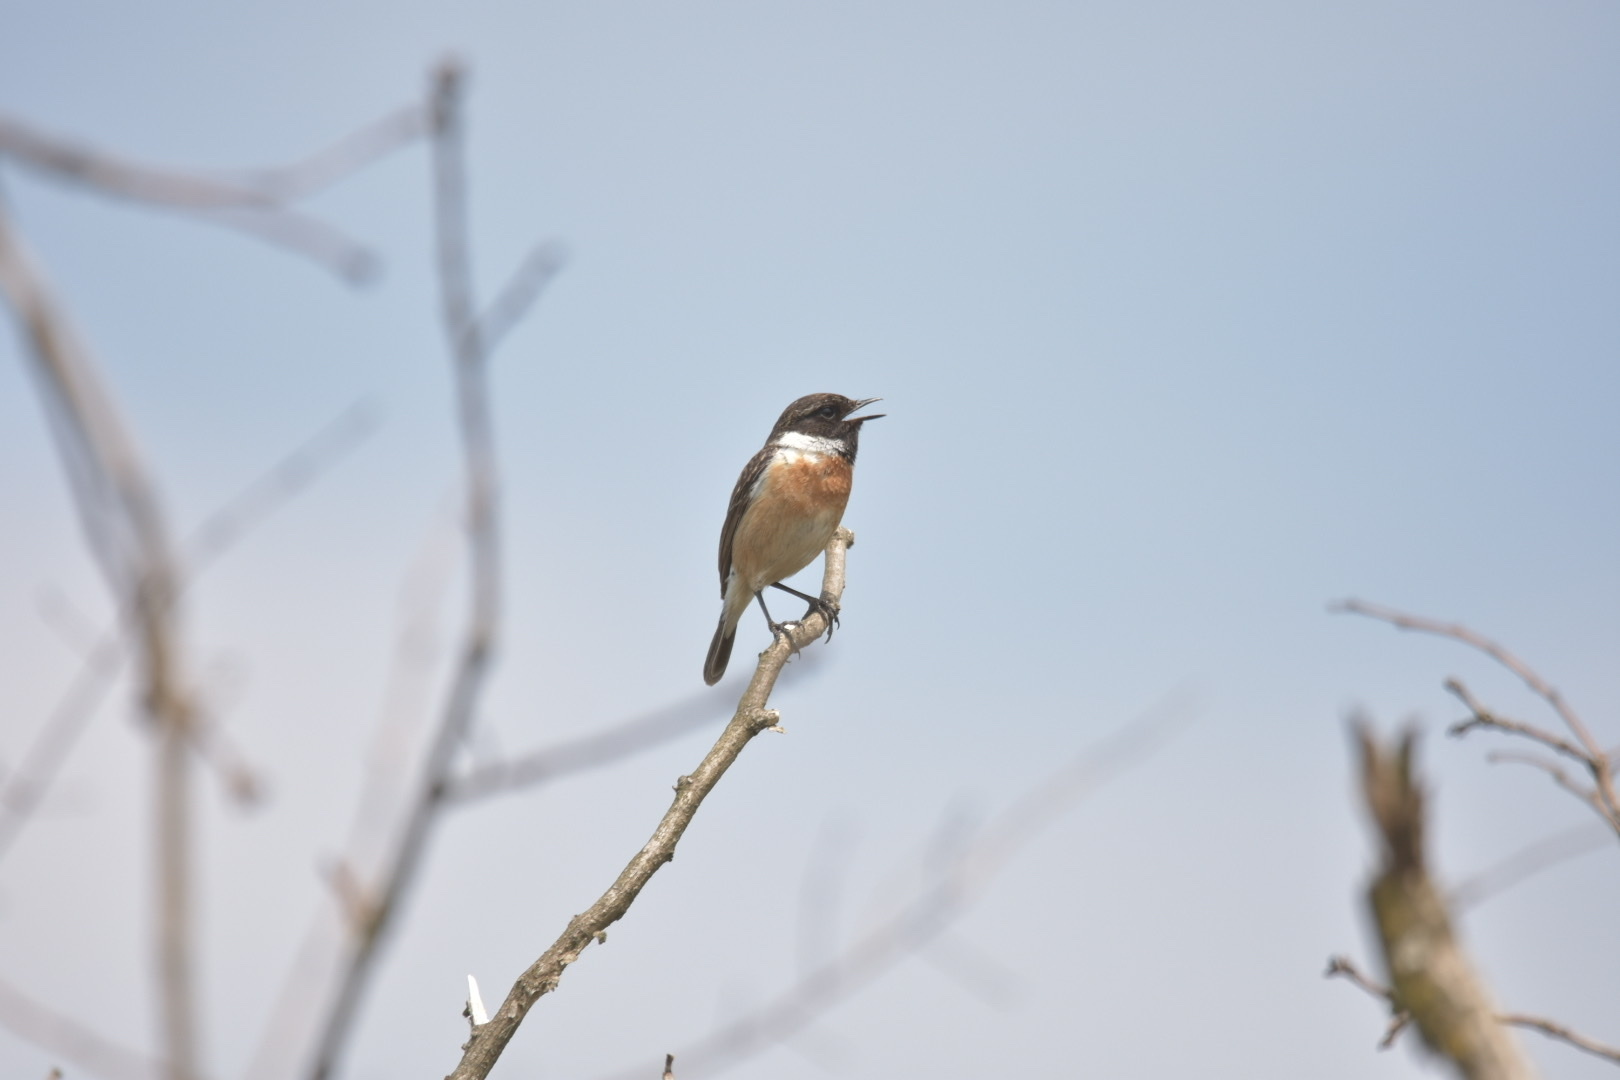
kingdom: Animalia
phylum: Chordata
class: Aves
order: Passeriformes
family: Muscicapidae
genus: Saxicola
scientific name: Saxicola rubicola
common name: European stonechat
